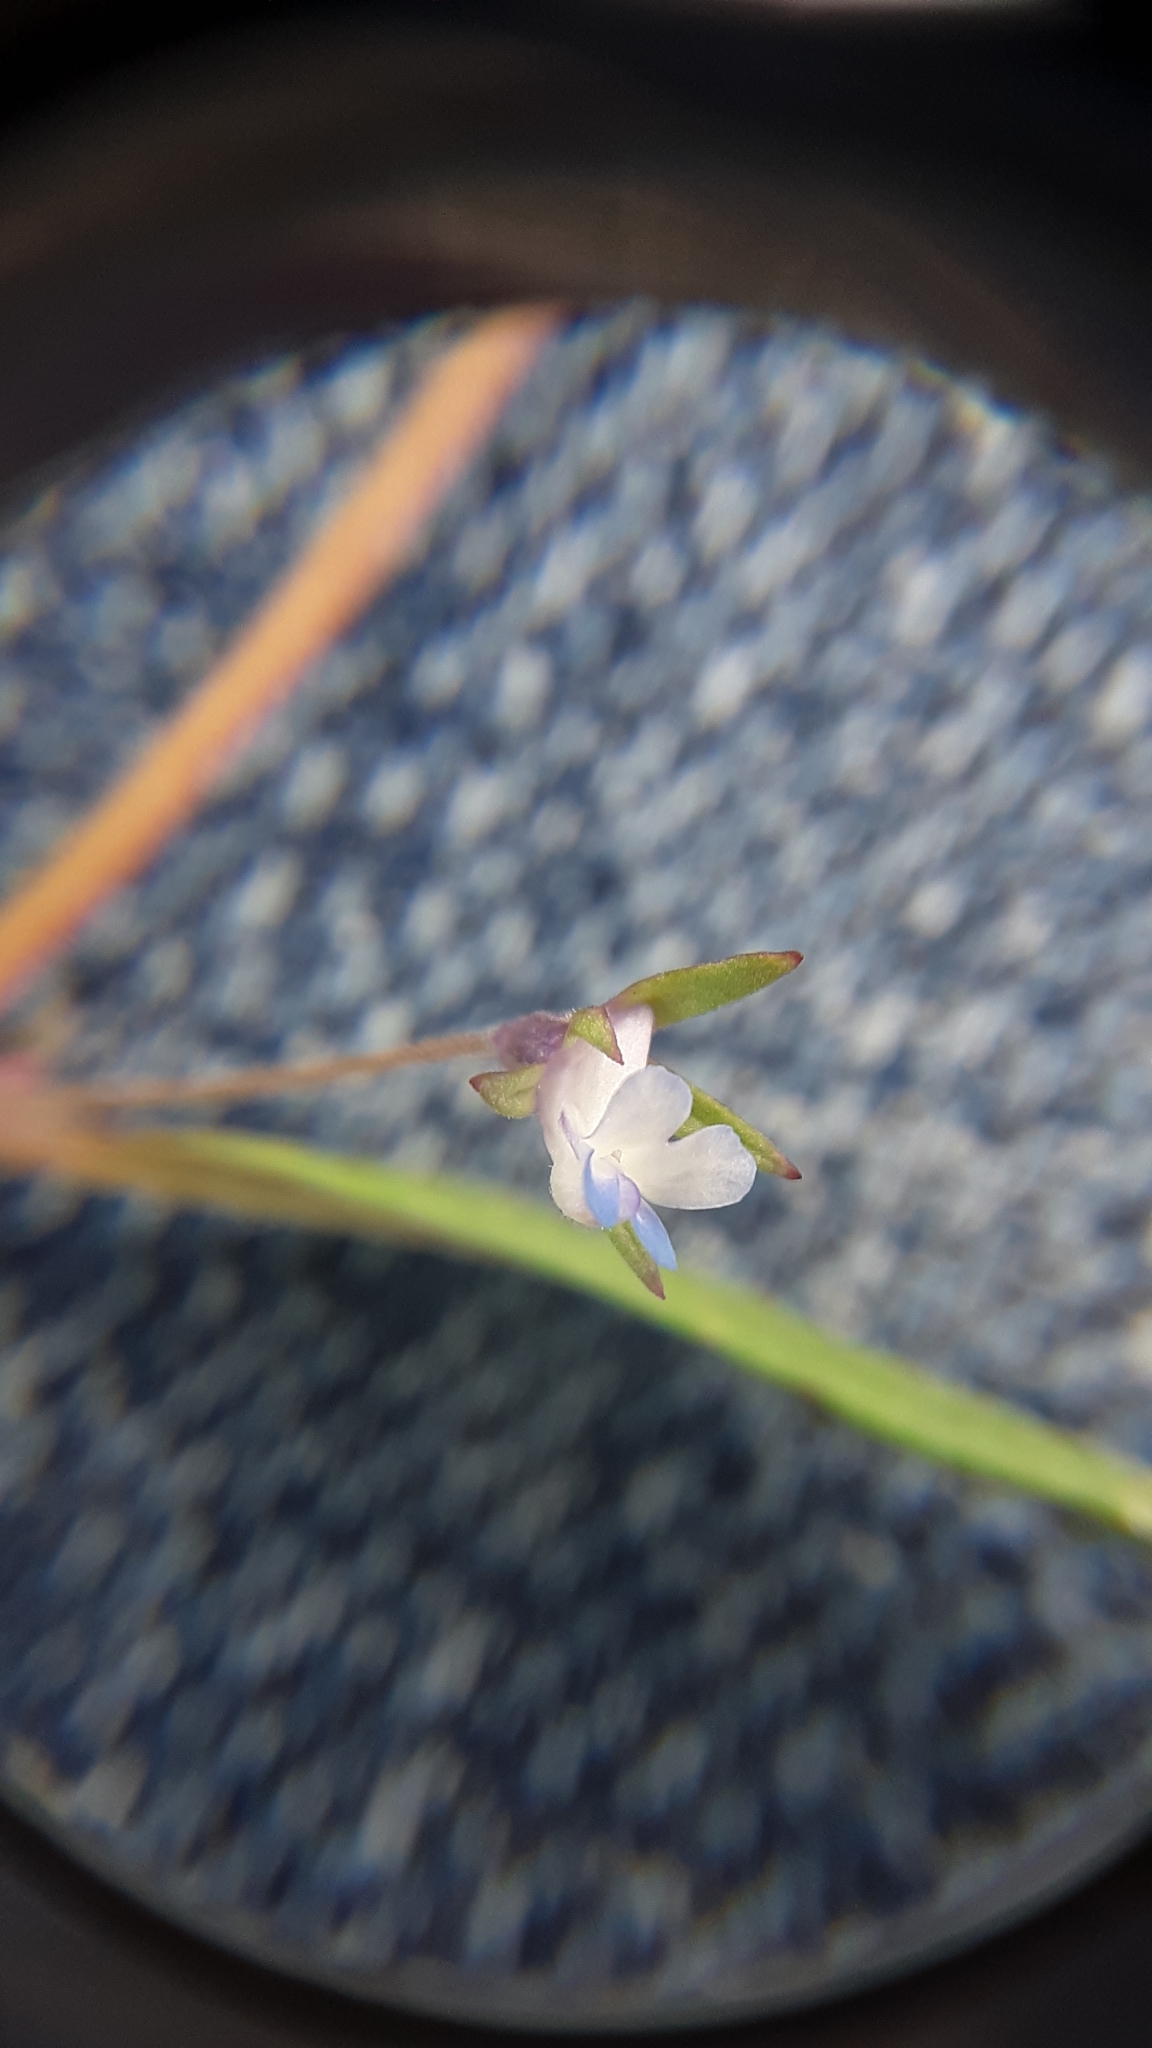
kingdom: Plantae
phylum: Tracheophyta
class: Magnoliopsida
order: Lamiales
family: Plantaginaceae
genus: Collinsia
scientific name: Collinsia parviflora
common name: Blue-lips
